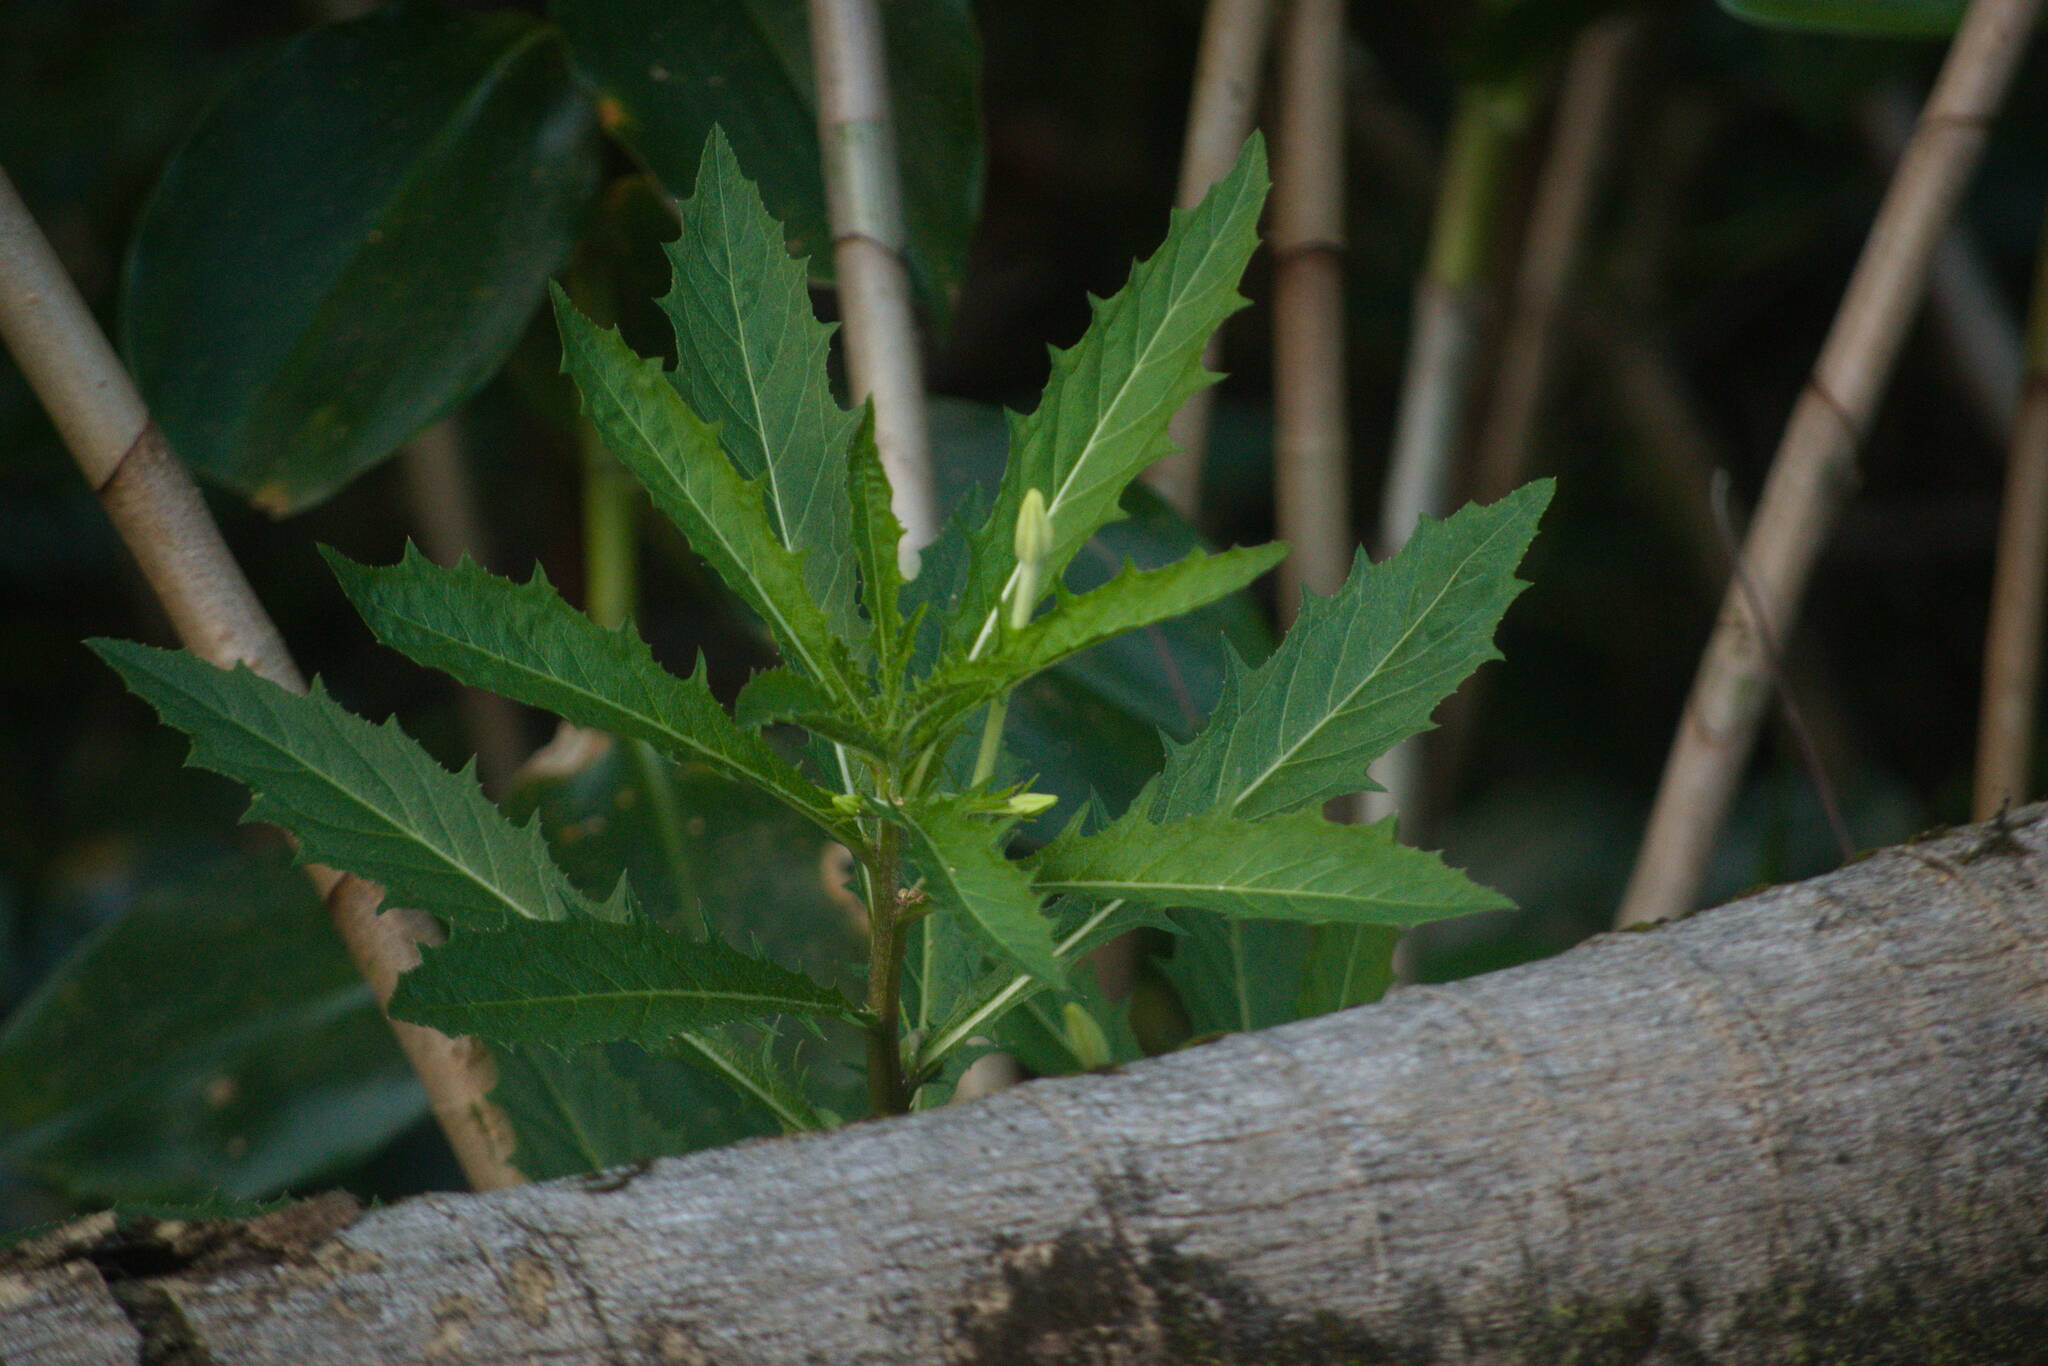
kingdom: Plantae
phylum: Tracheophyta
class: Magnoliopsida
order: Asterales
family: Campanulaceae
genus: Hippobroma
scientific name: Hippobroma longiflora
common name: Madamfate
